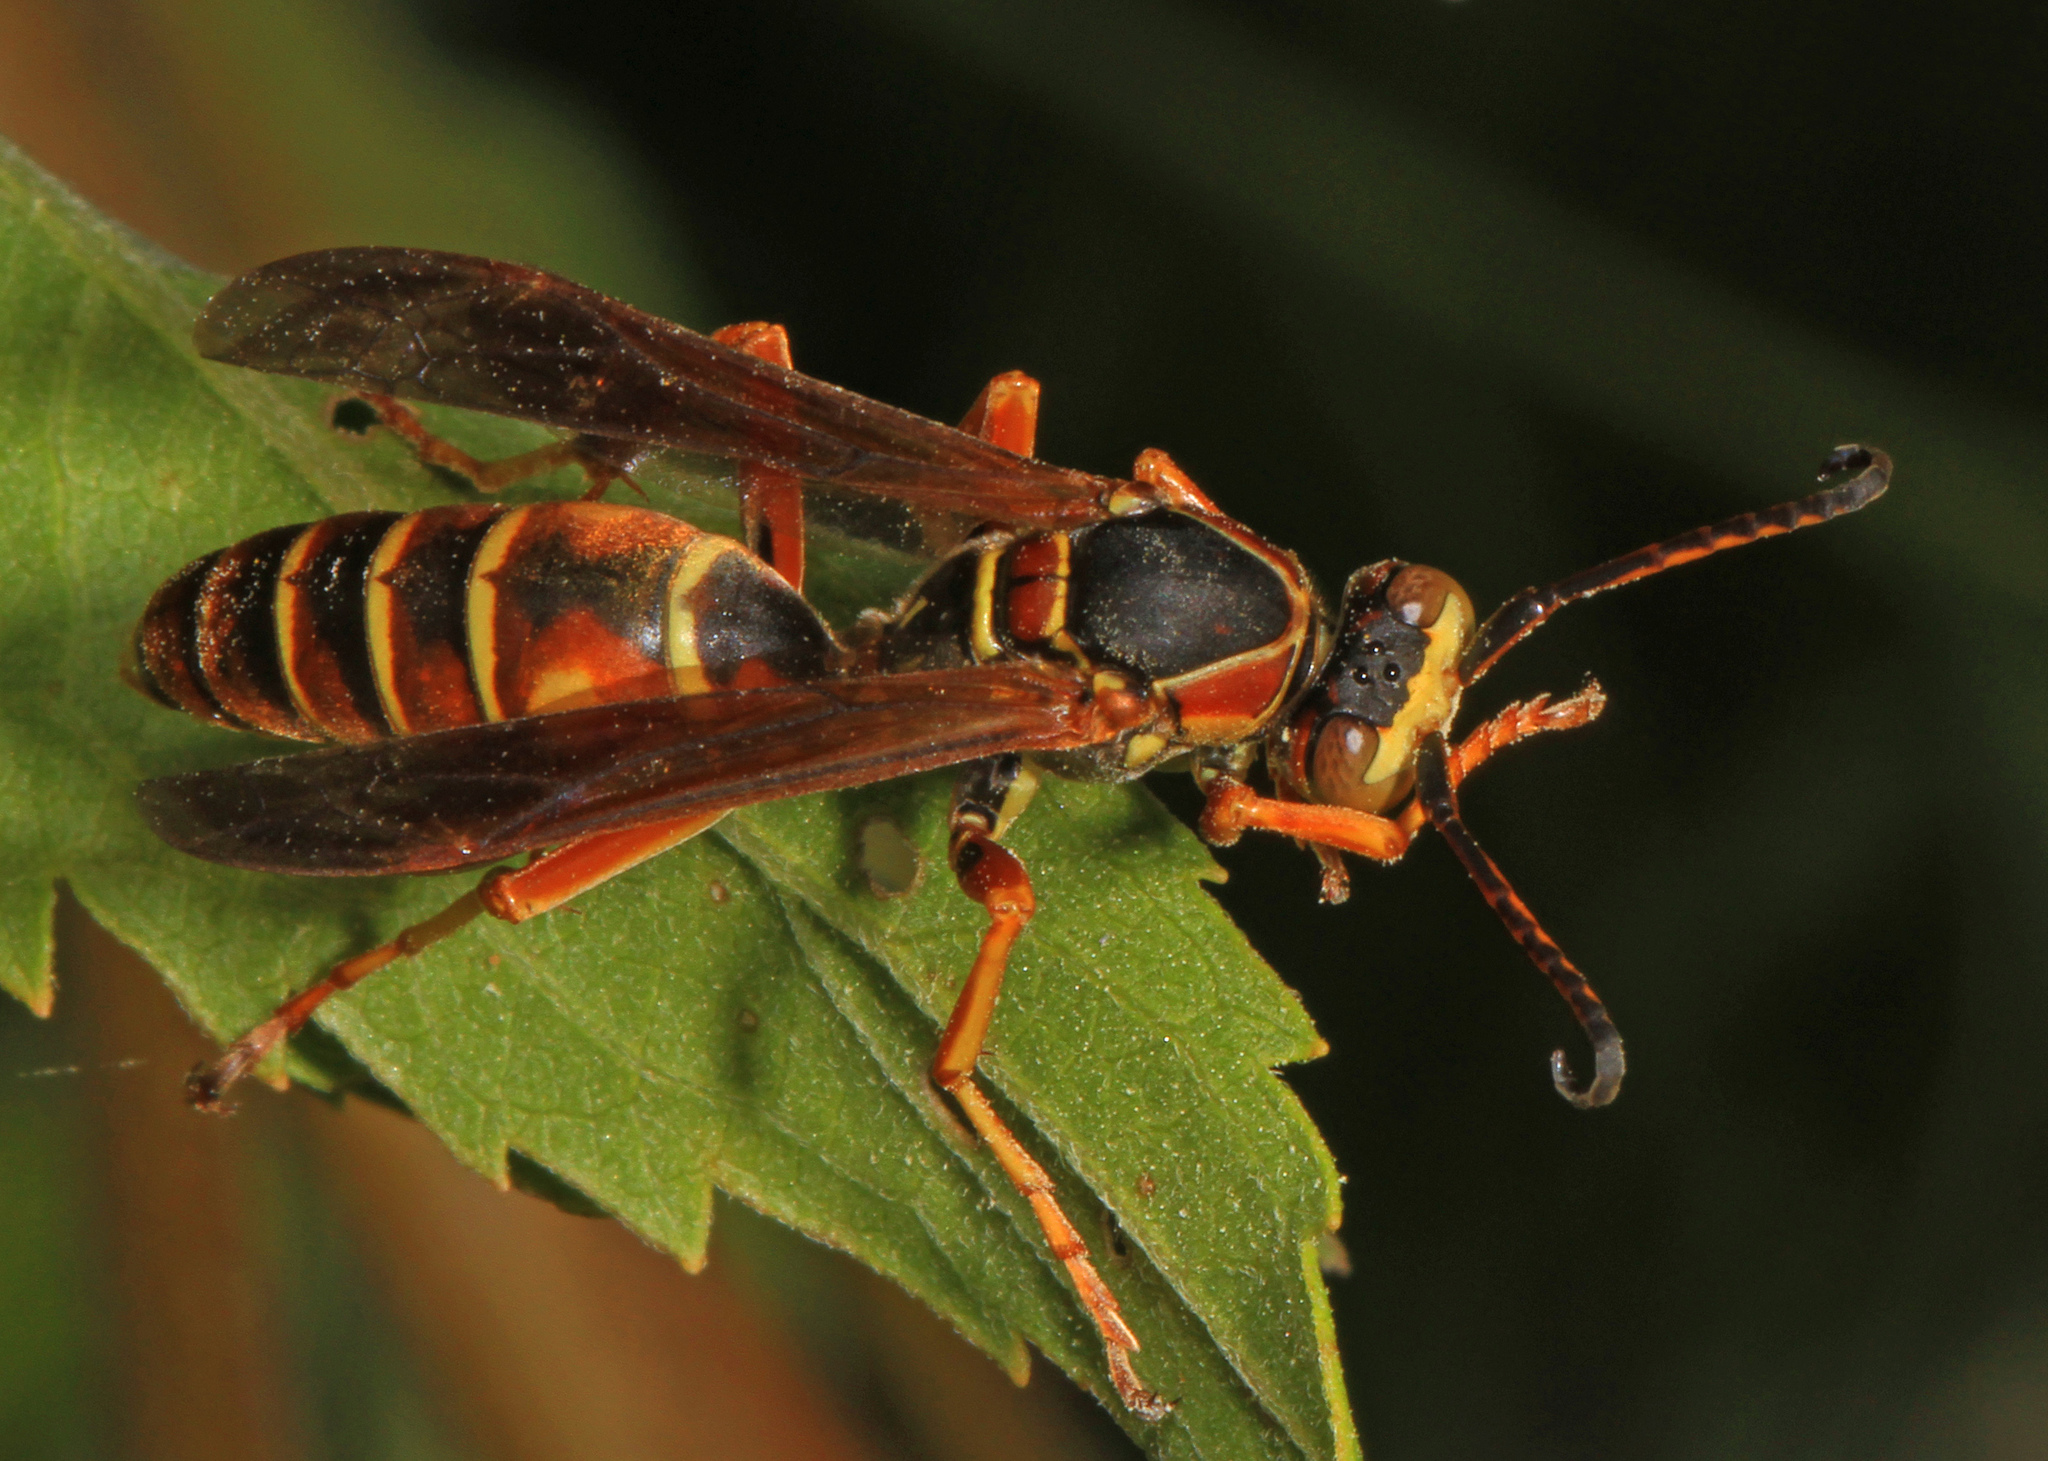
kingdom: Animalia
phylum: Arthropoda
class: Insecta
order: Hymenoptera
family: Eumenidae
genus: Polistes
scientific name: Polistes fuscatus
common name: Dark paper wasp
